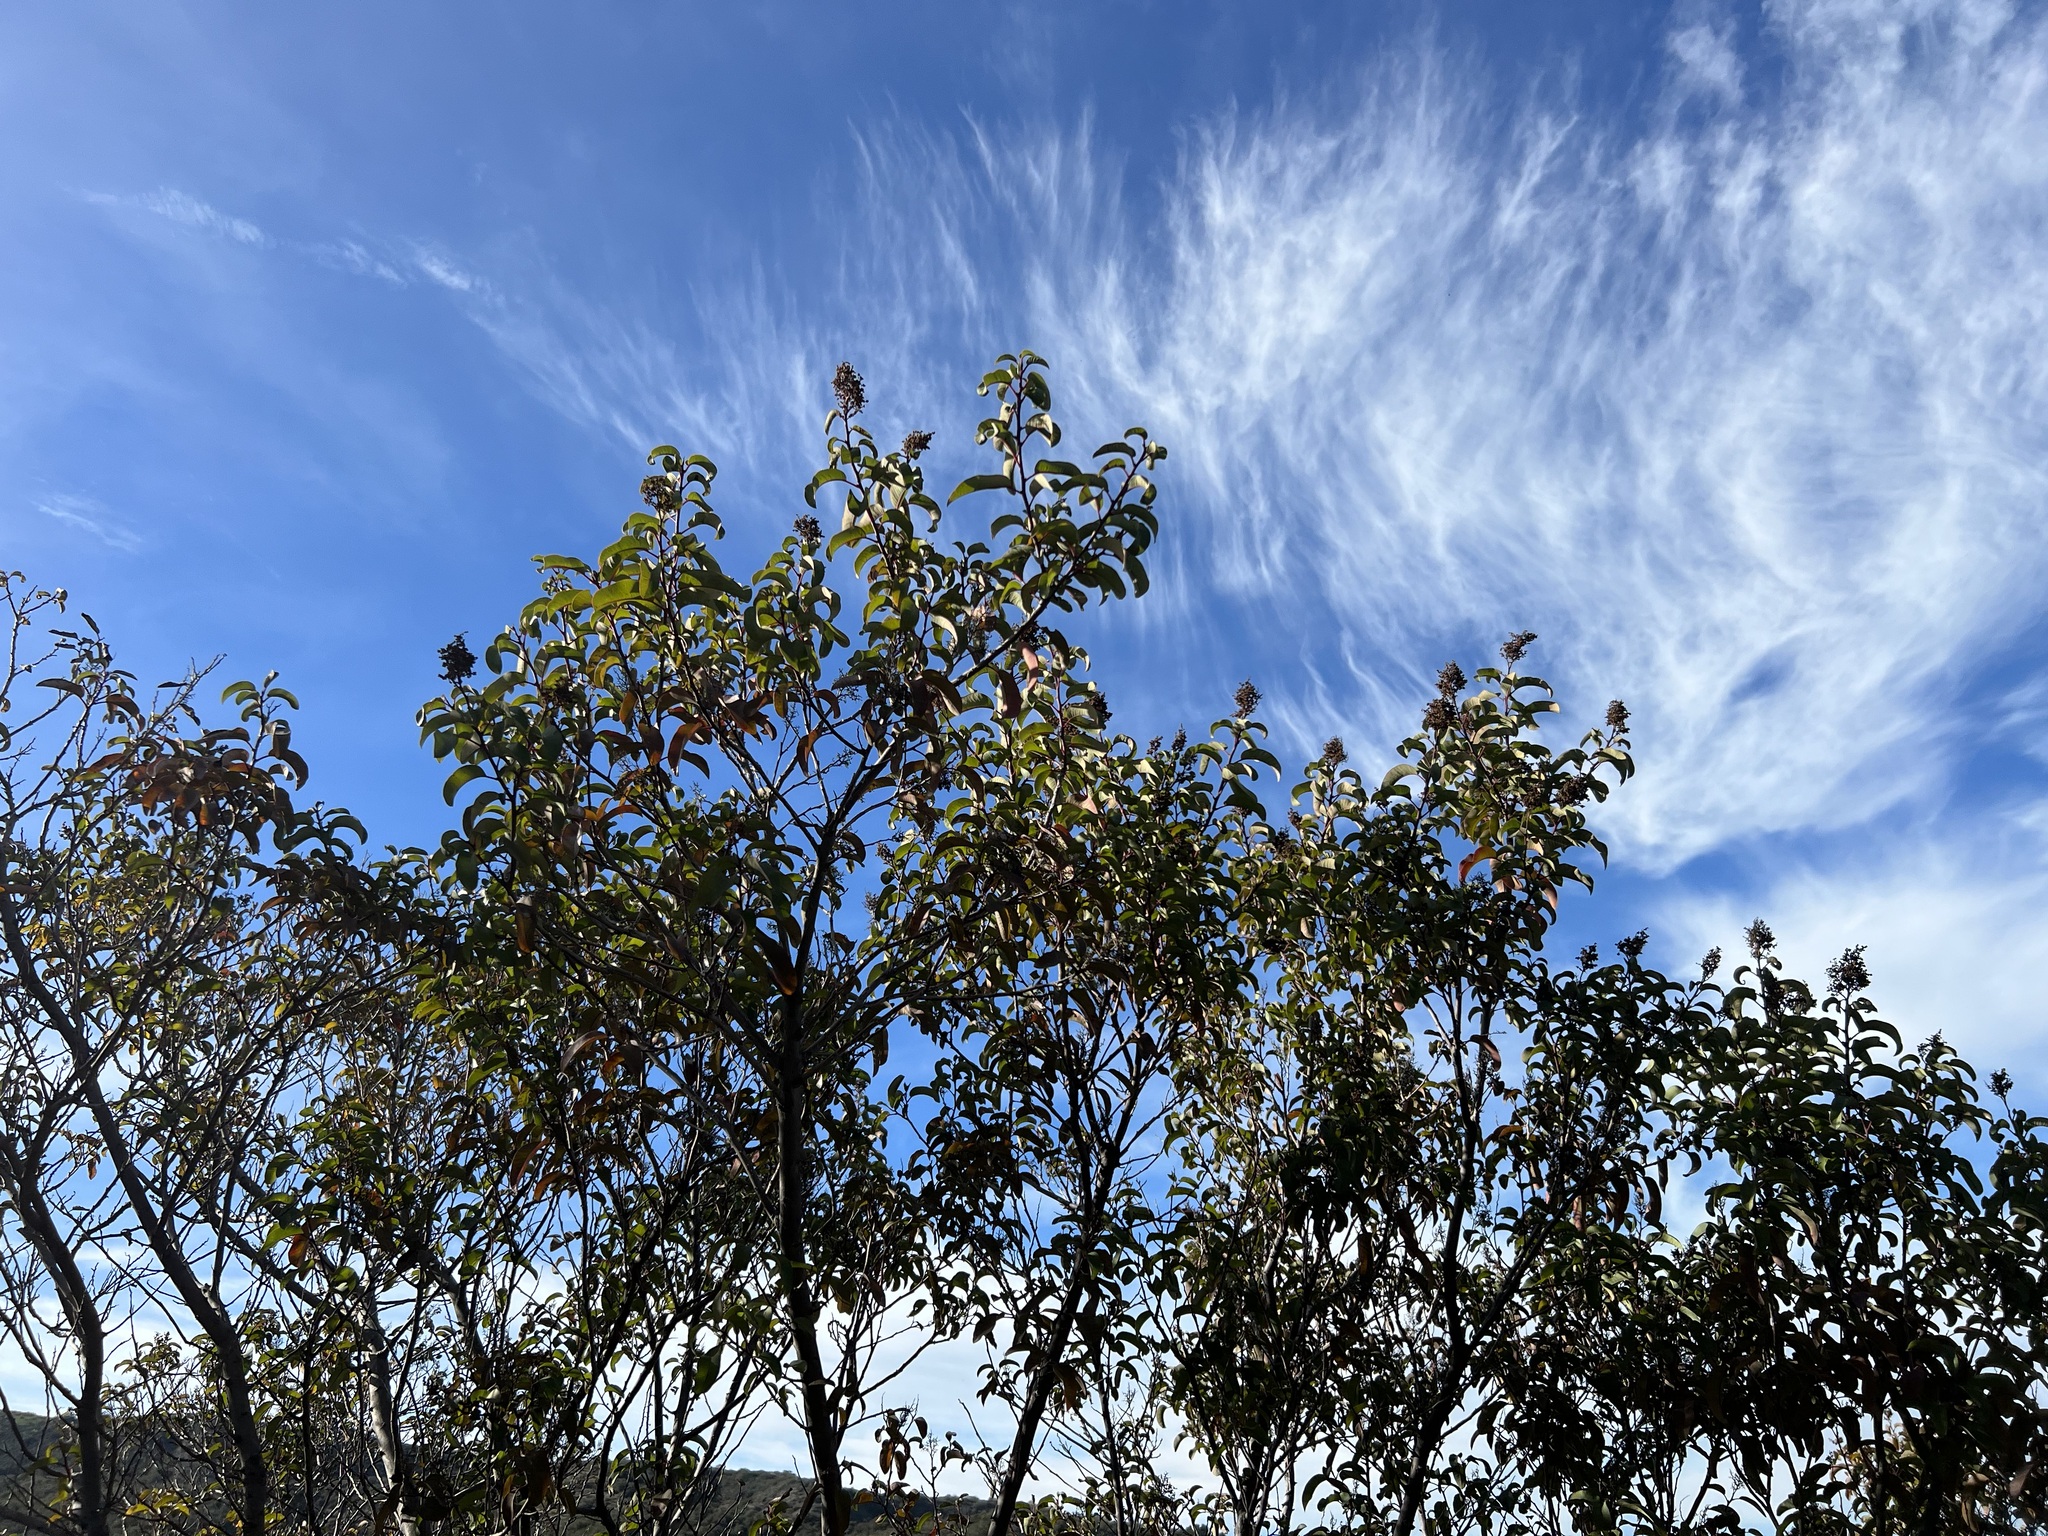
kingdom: Plantae
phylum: Tracheophyta
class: Magnoliopsida
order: Sapindales
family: Anacardiaceae
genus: Malosma
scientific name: Malosma laurina
